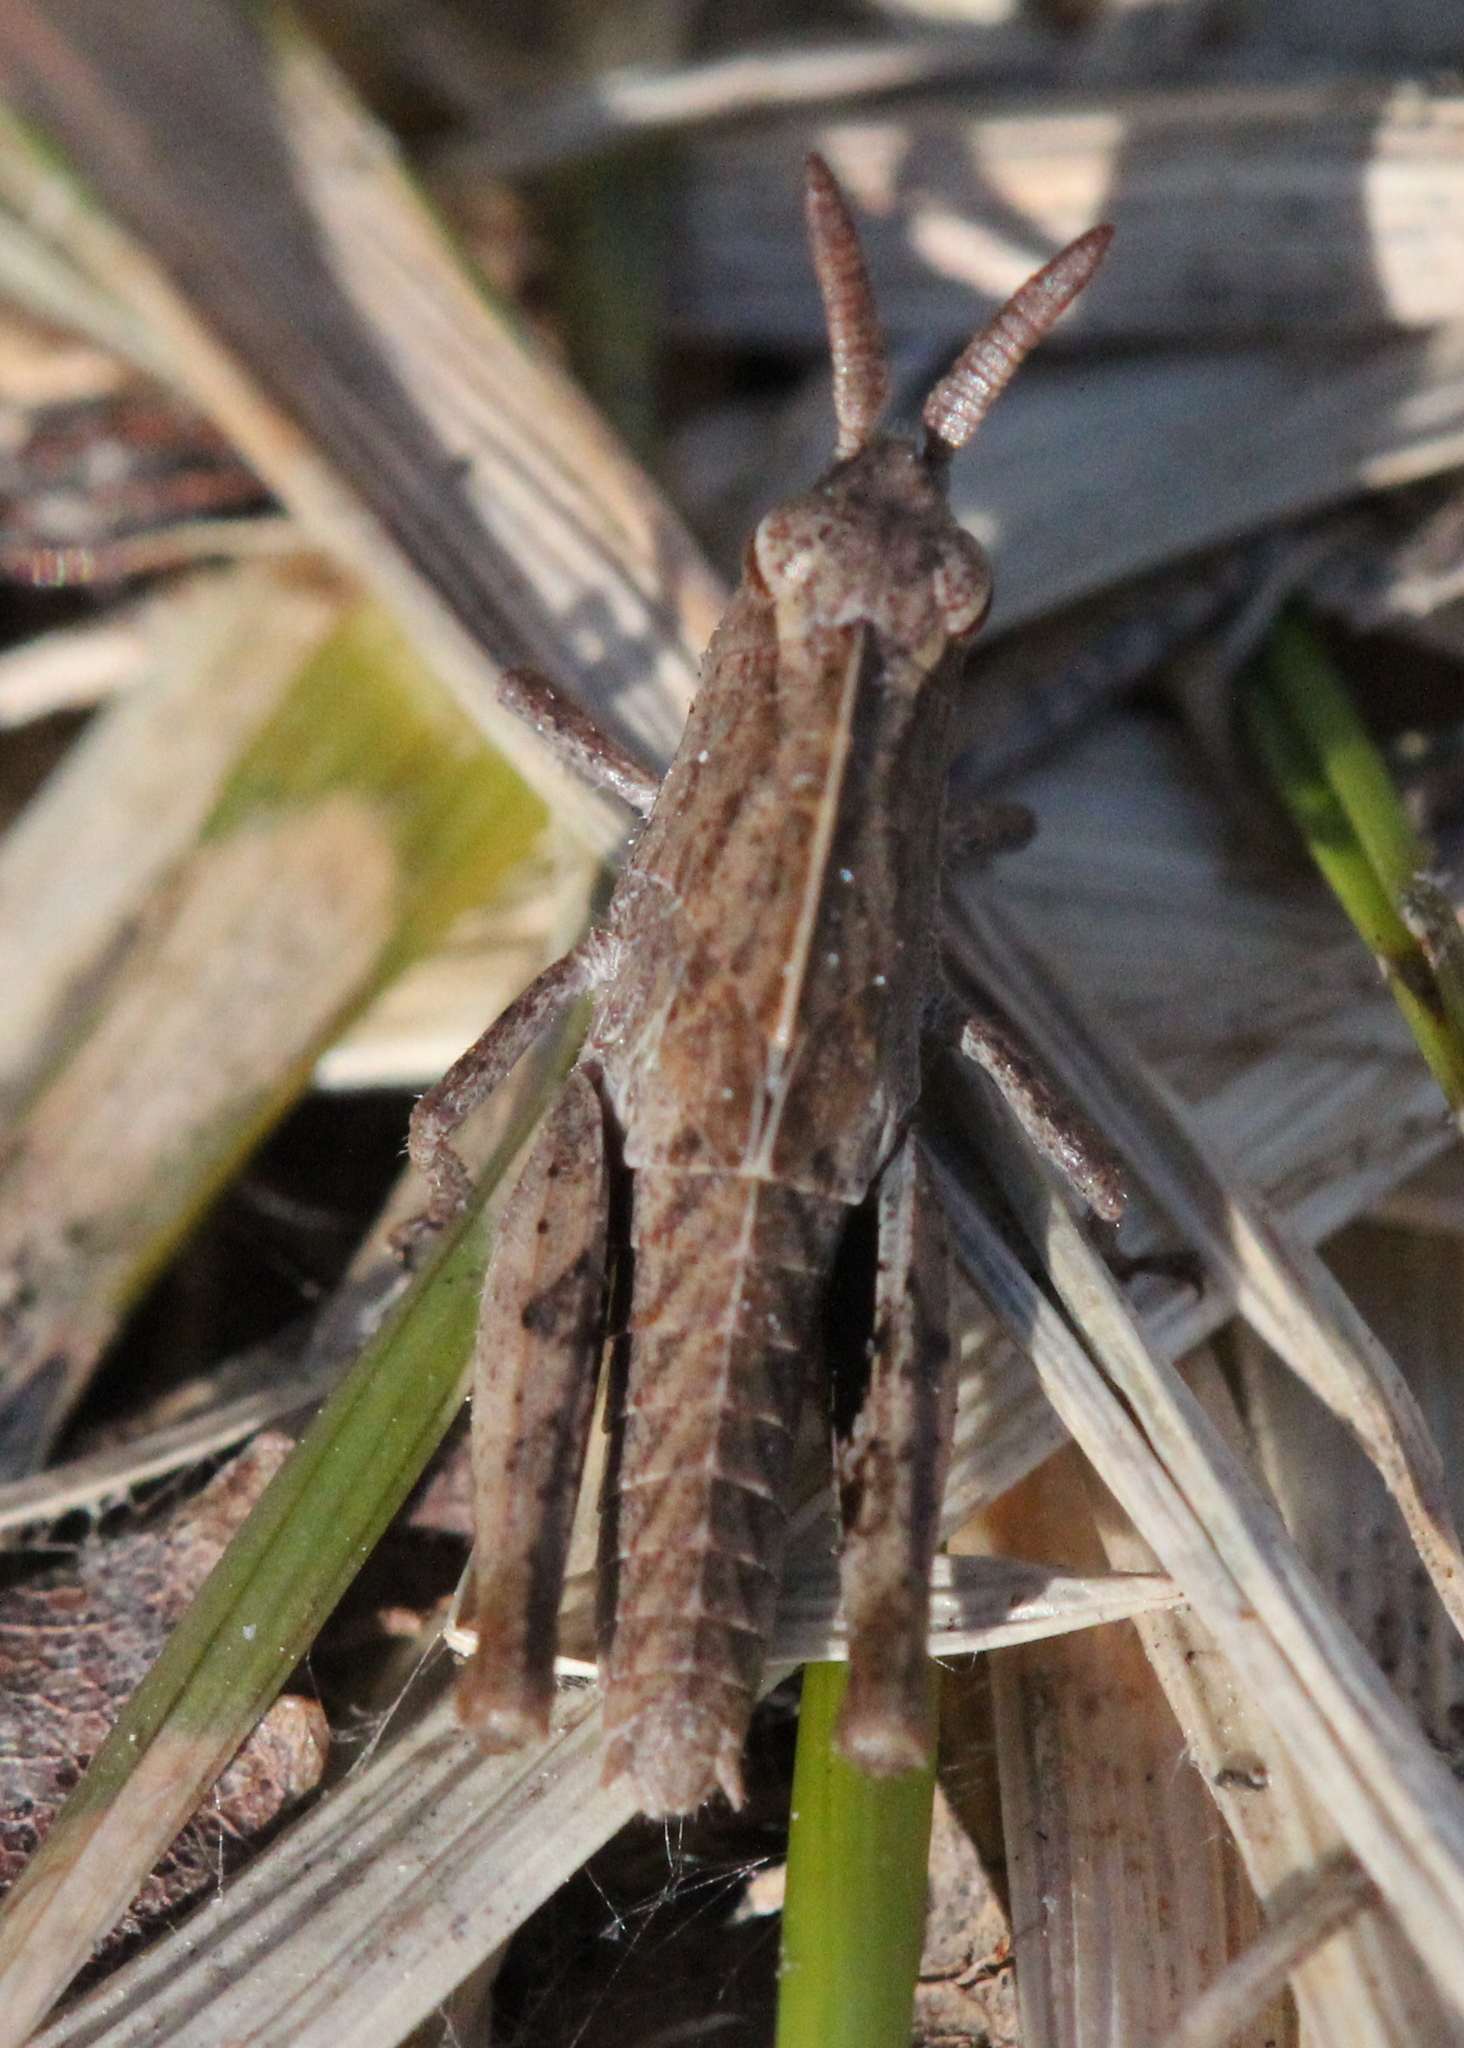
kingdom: Animalia
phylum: Arthropoda
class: Insecta
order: Orthoptera
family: Acrididae
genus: Chortophaga
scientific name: Chortophaga viridifasciata
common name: Green-striped grasshopper
